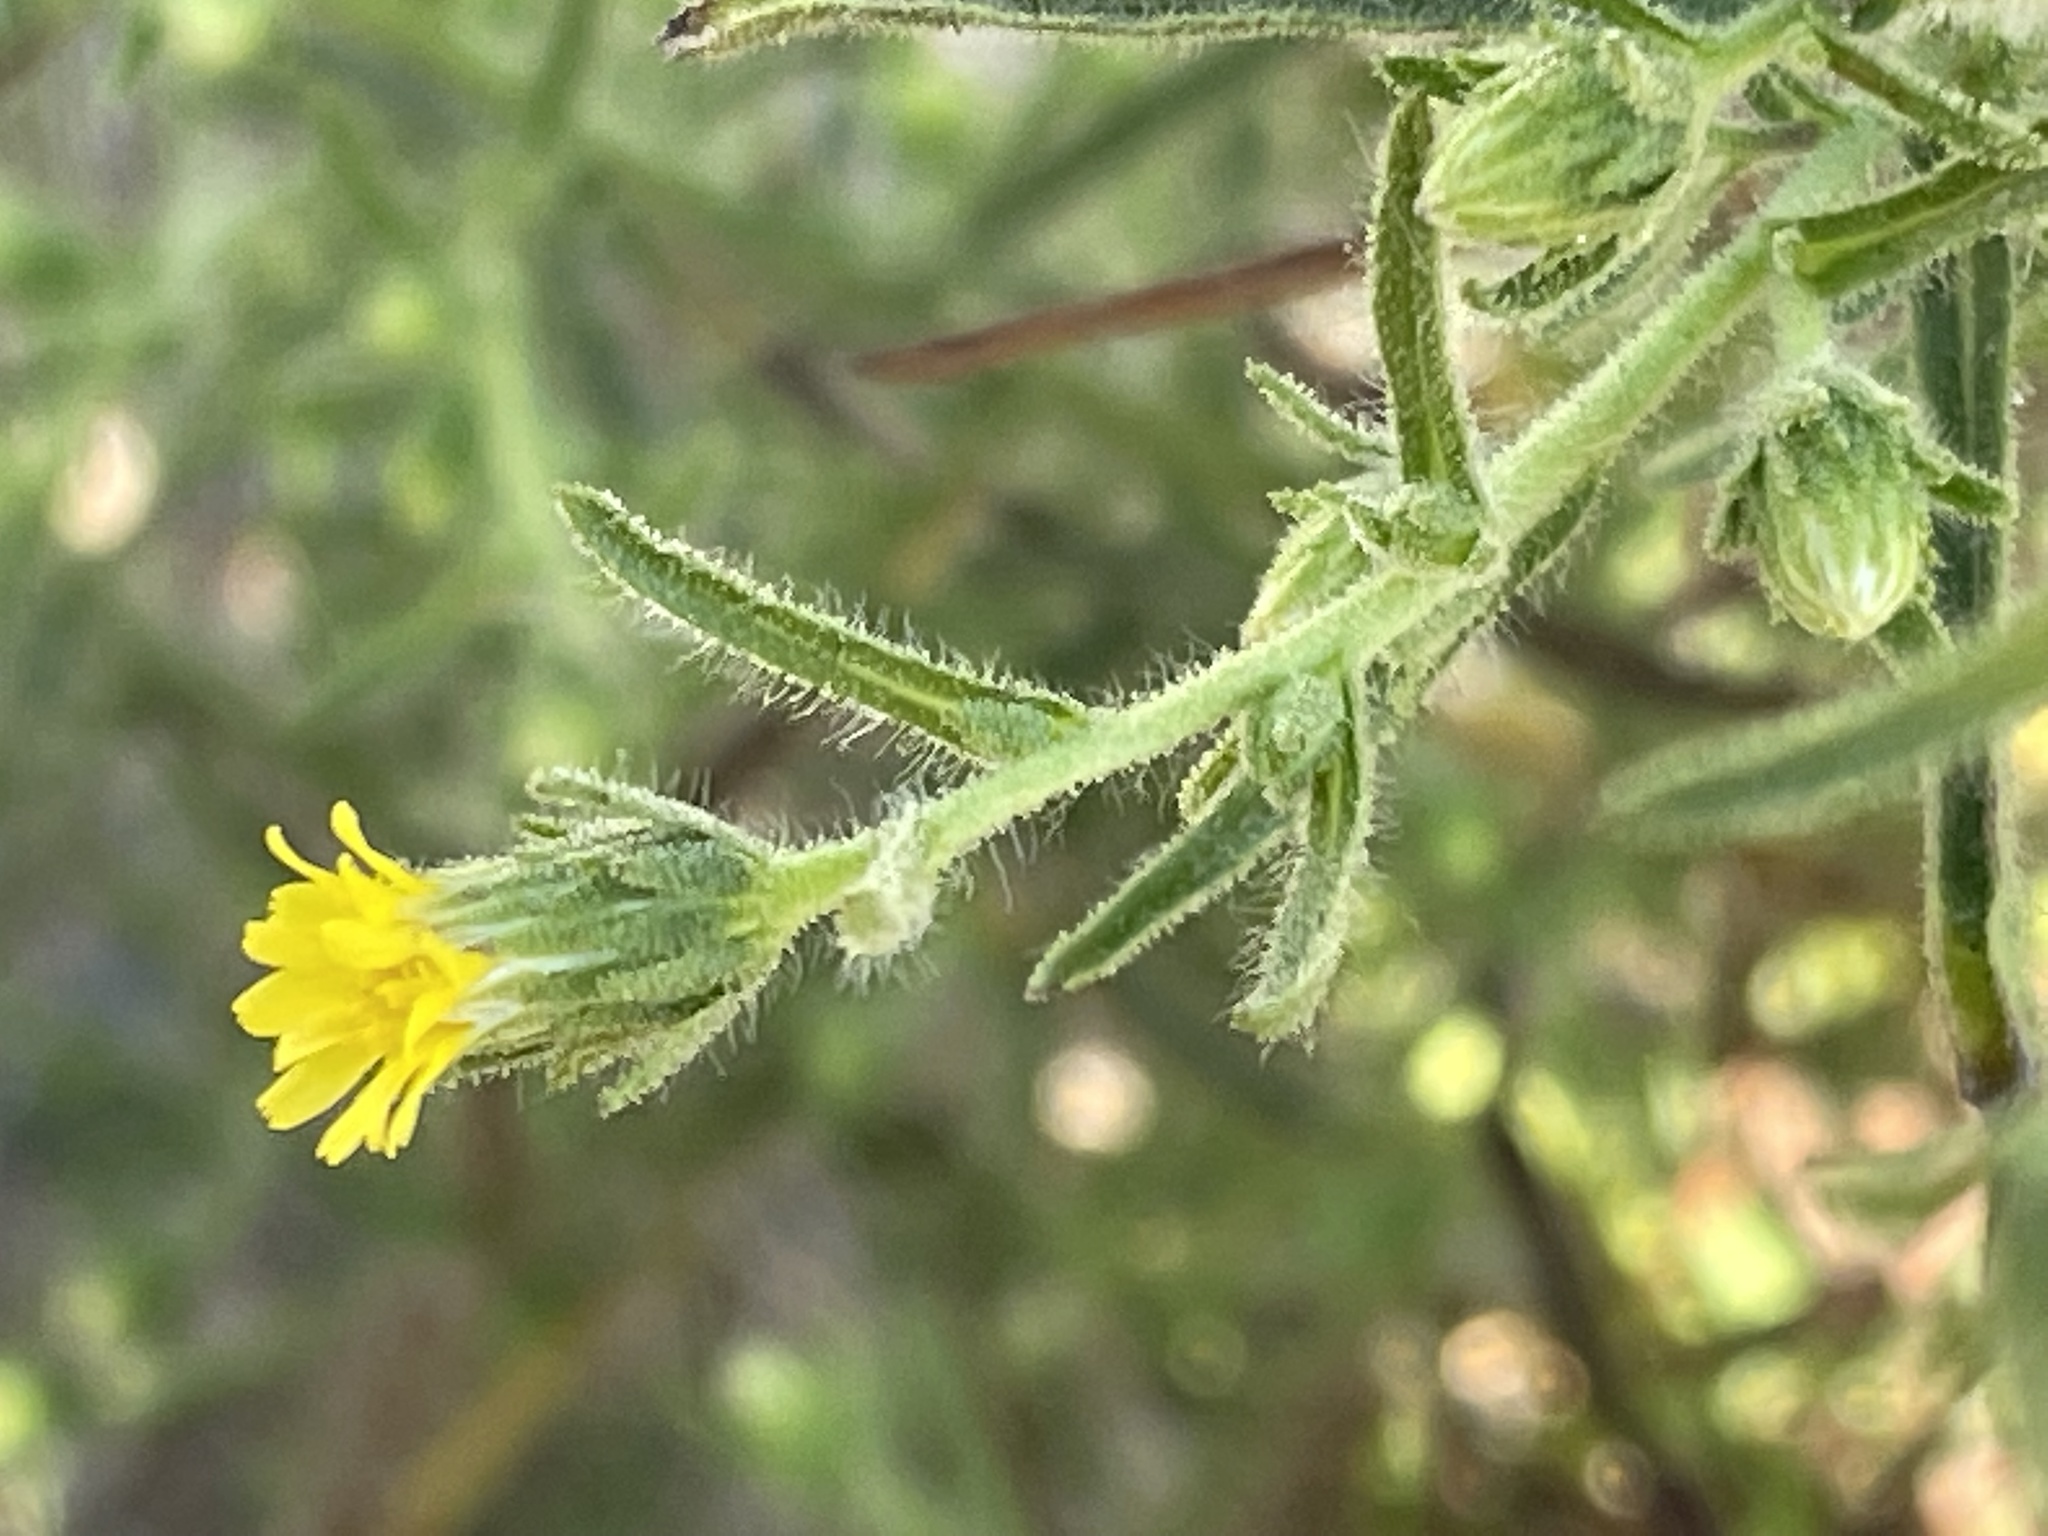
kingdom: Plantae
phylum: Tracheophyta
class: Magnoliopsida
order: Asterales
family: Asteraceae
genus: Dittrichia
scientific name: Dittrichia graveolens
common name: Stinking fleabane
